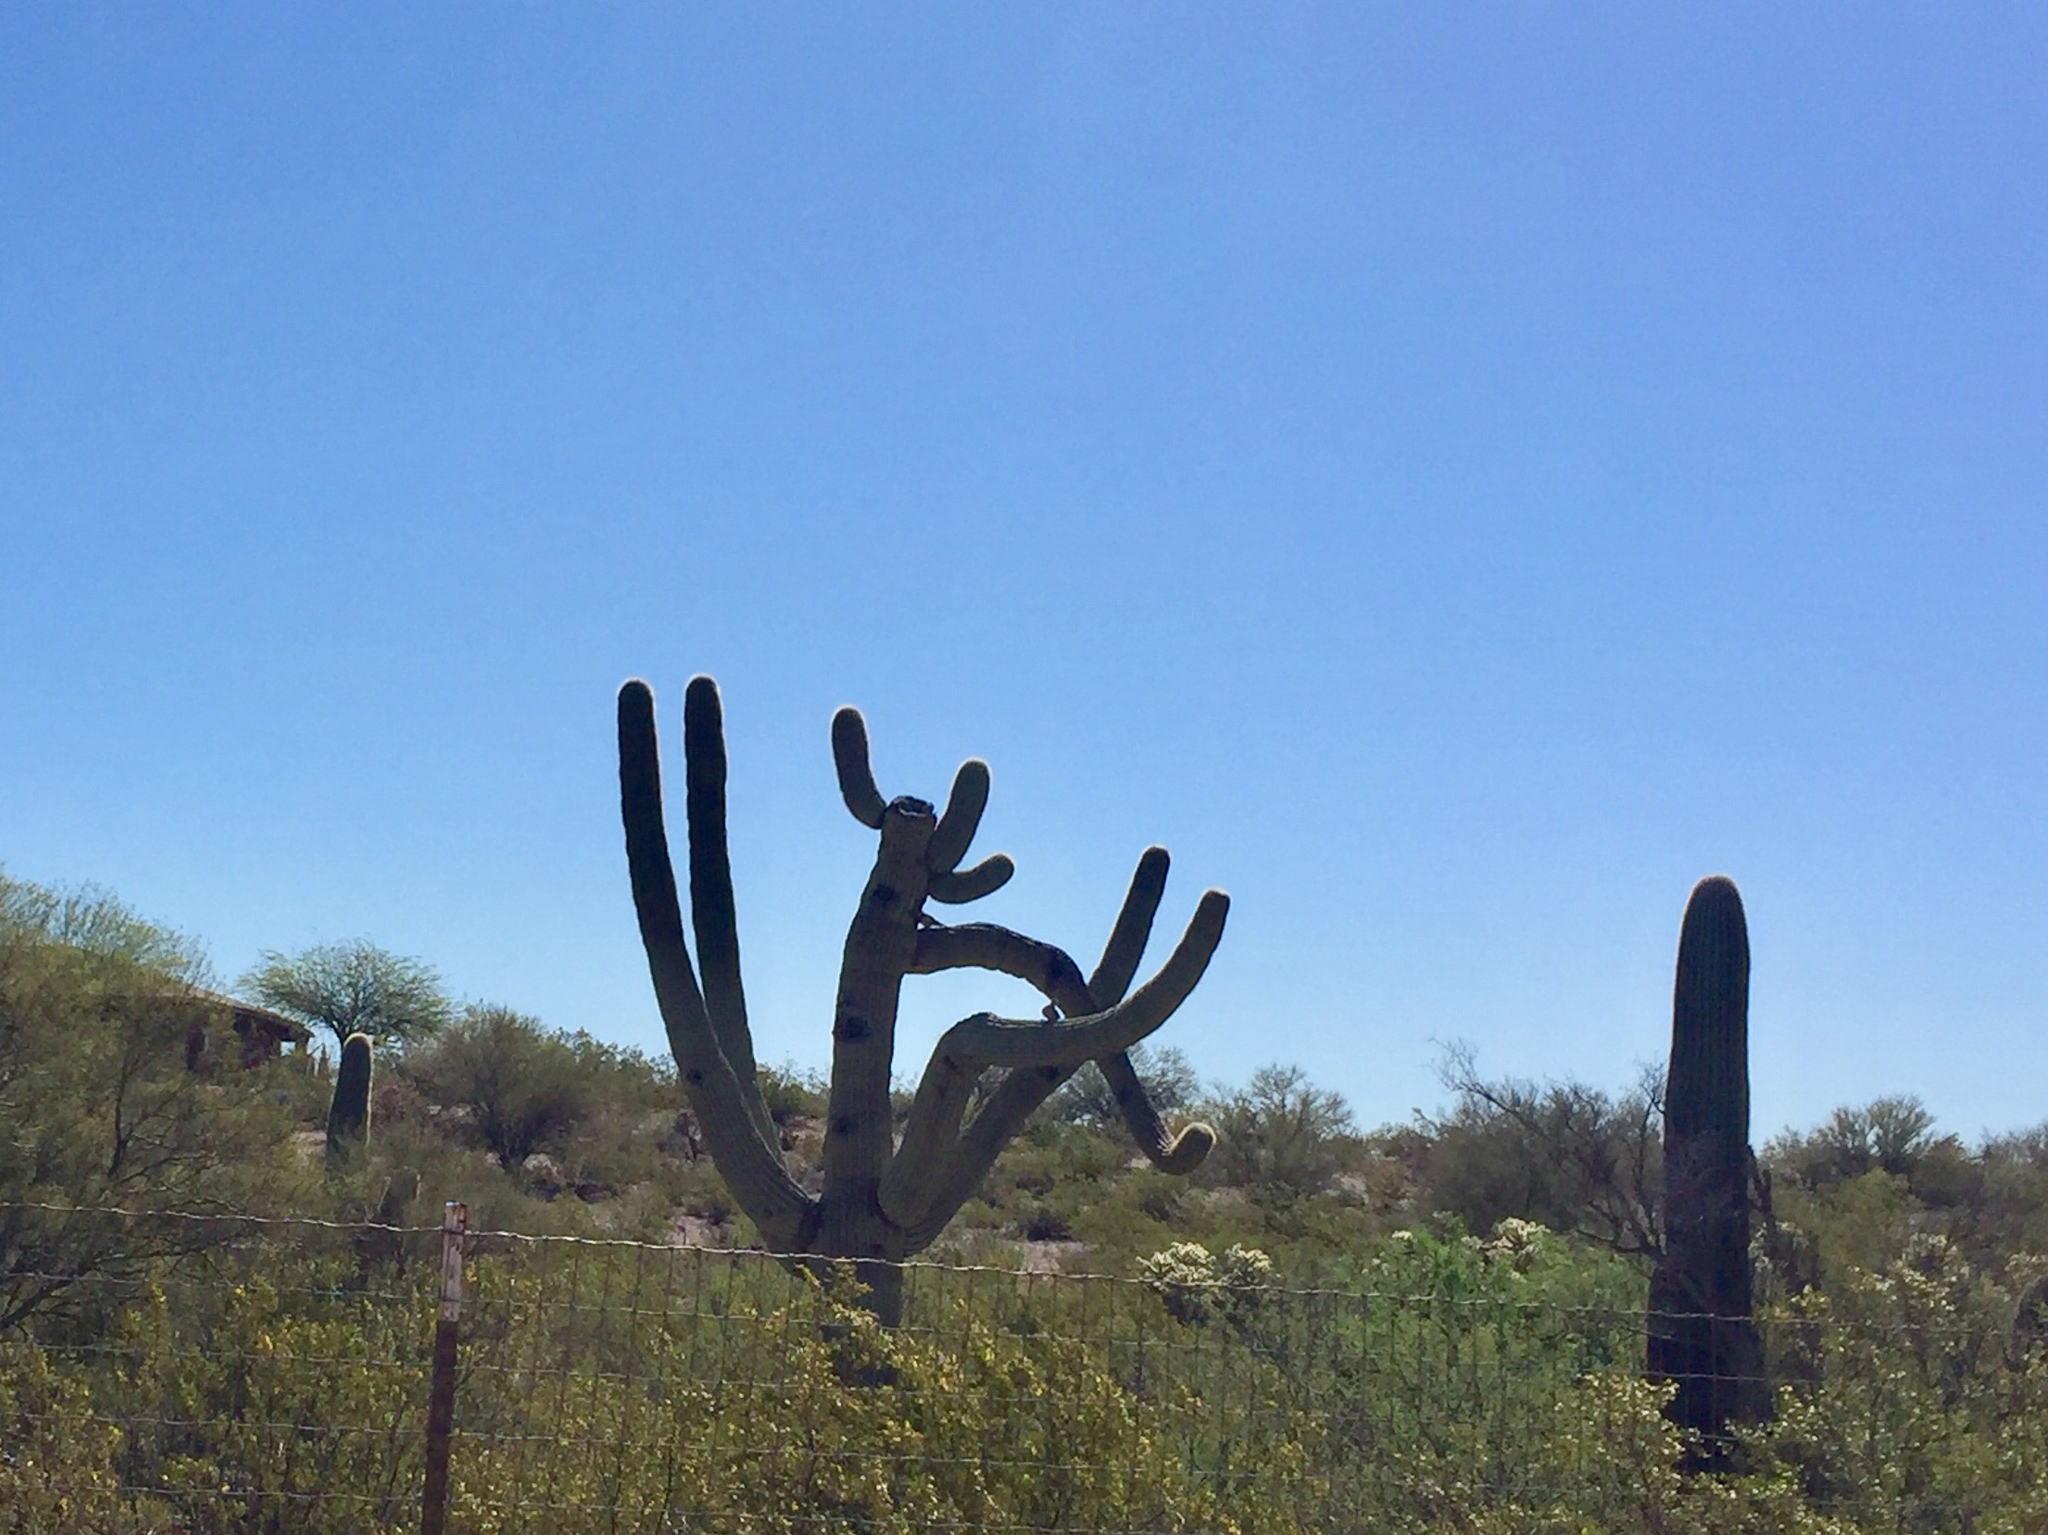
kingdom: Plantae
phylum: Tracheophyta
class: Magnoliopsida
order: Caryophyllales
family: Cactaceae
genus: Carnegiea
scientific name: Carnegiea gigantea
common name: Saguaro
